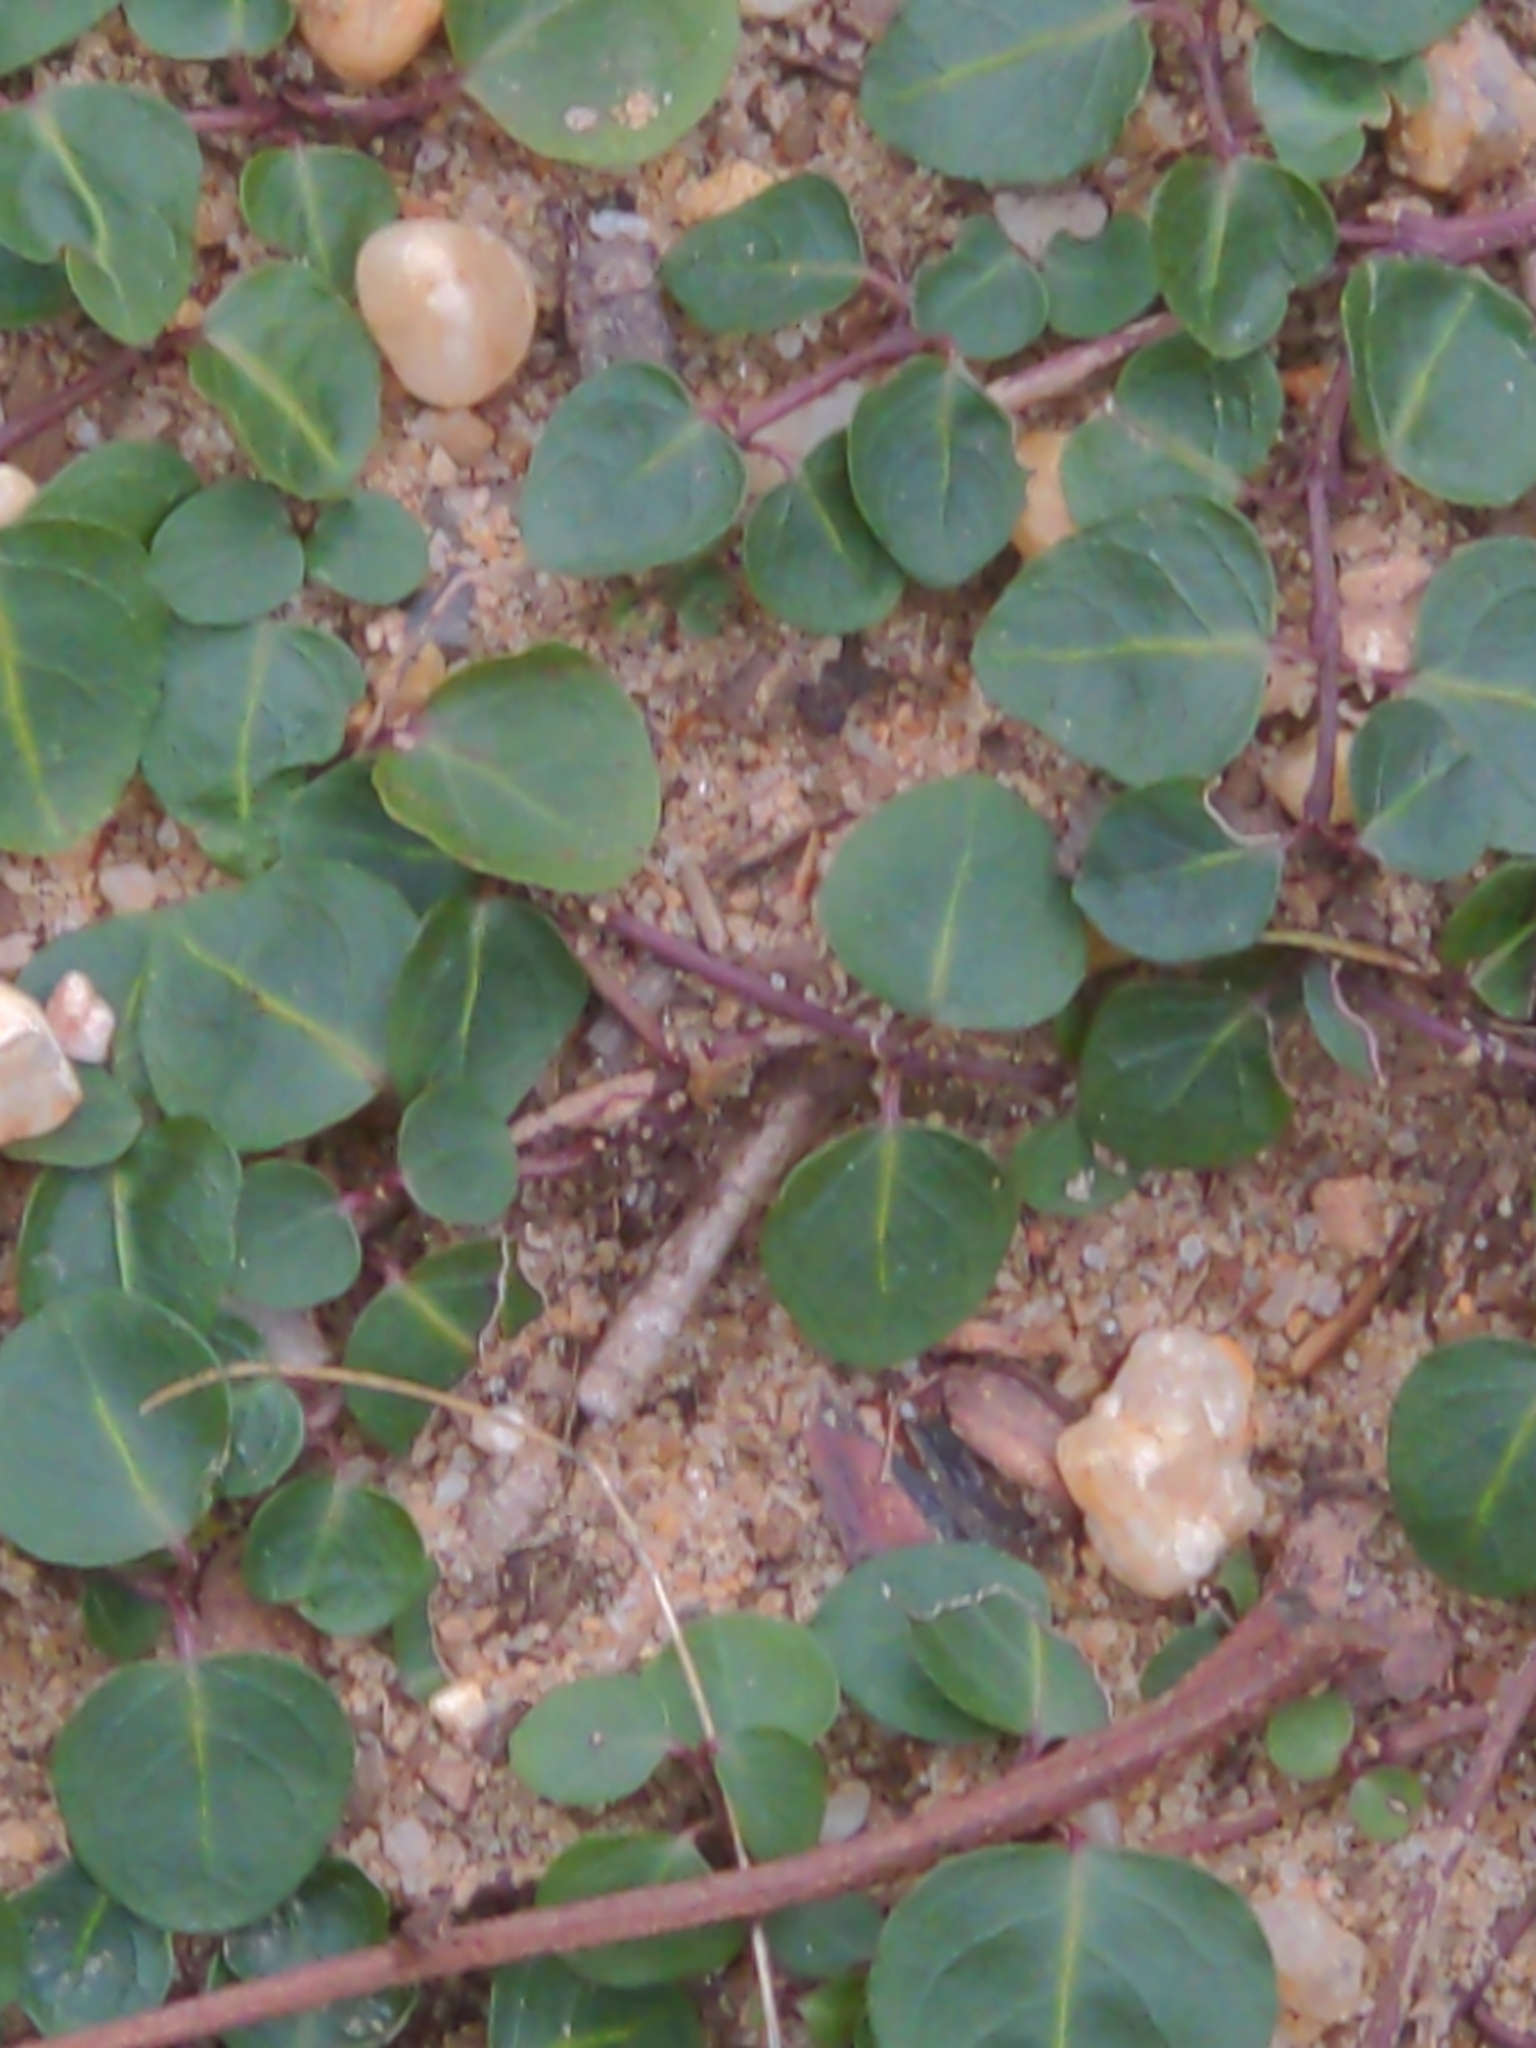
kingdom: Plantae
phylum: Tracheophyta
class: Magnoliopsida
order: Gentianales
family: Rubiaceae
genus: Mitchella
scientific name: Mitchella repens
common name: Partridge-berry
